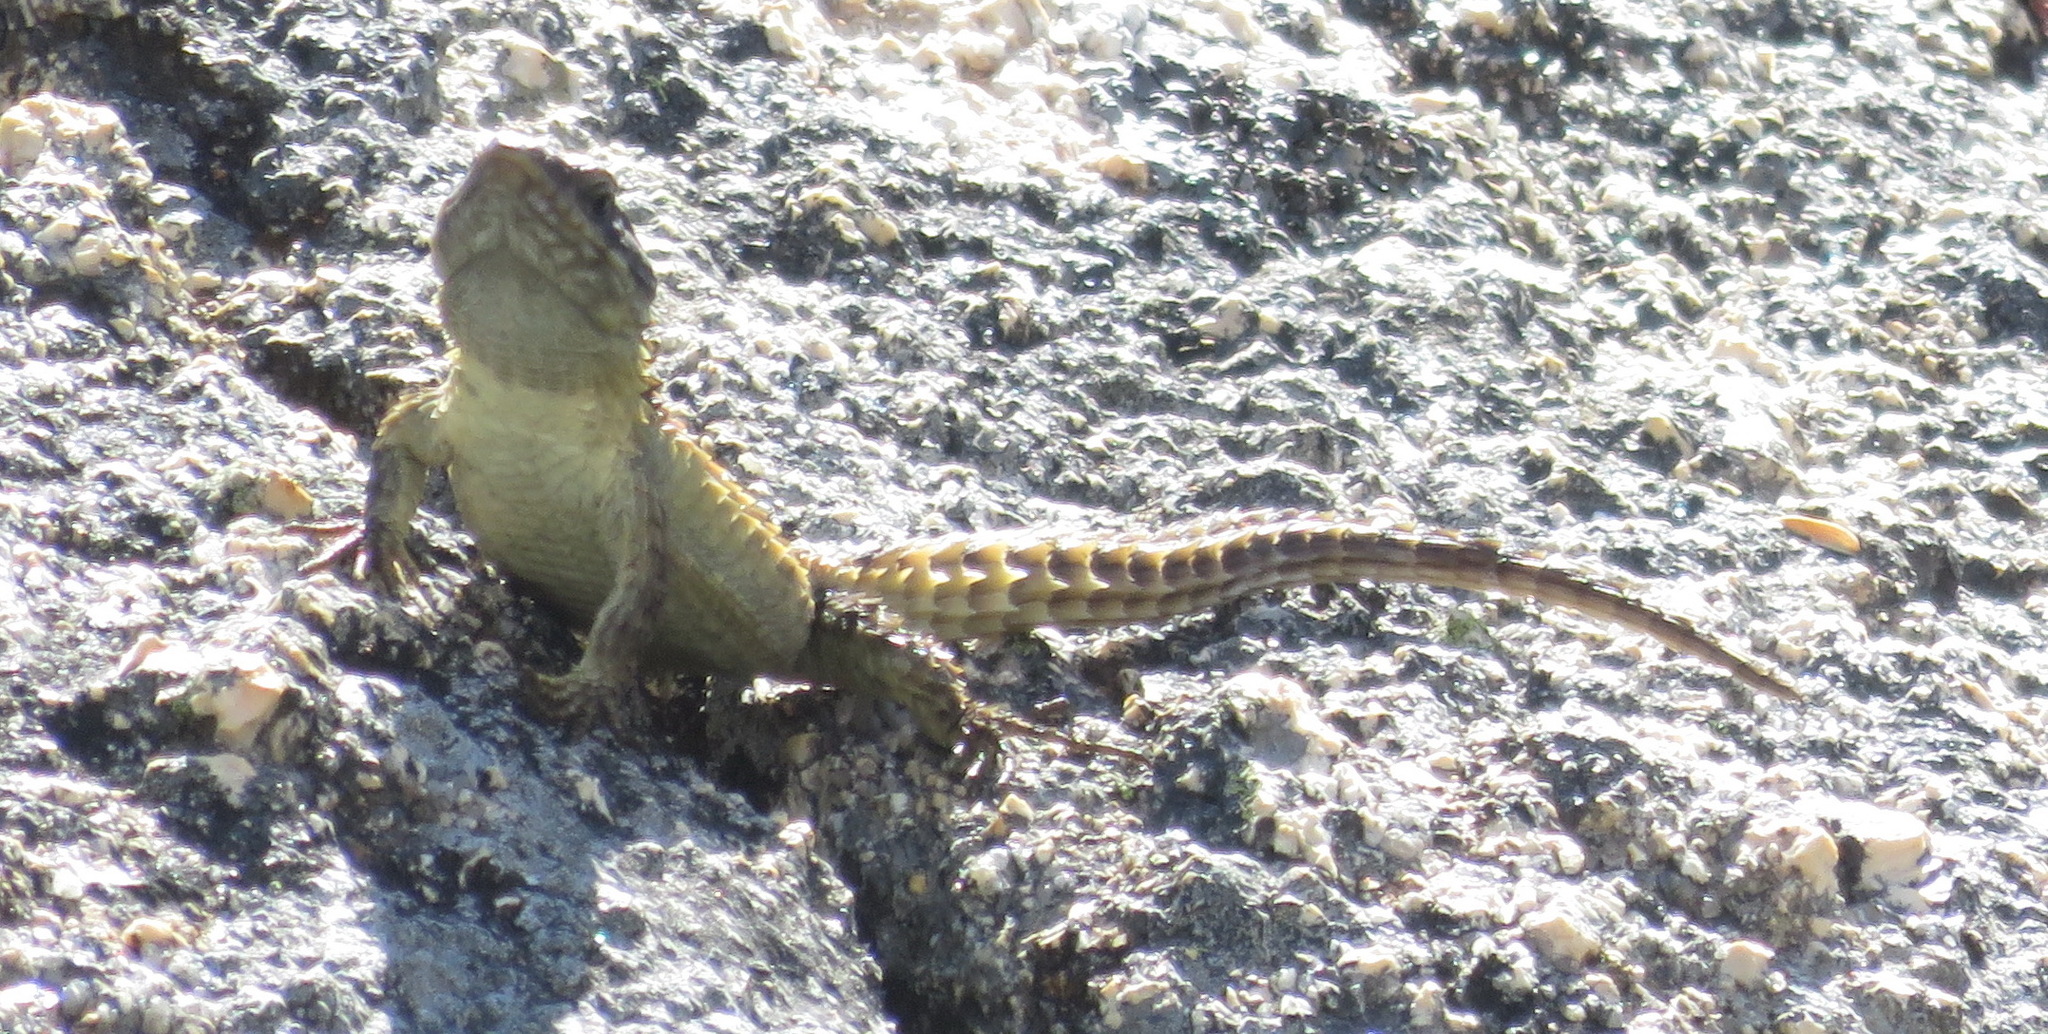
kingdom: Animalia
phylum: Chordata
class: Squamata
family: Cordylidae
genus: Cordylus
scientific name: Cordylus cordylus
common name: Cape girdled lizard
